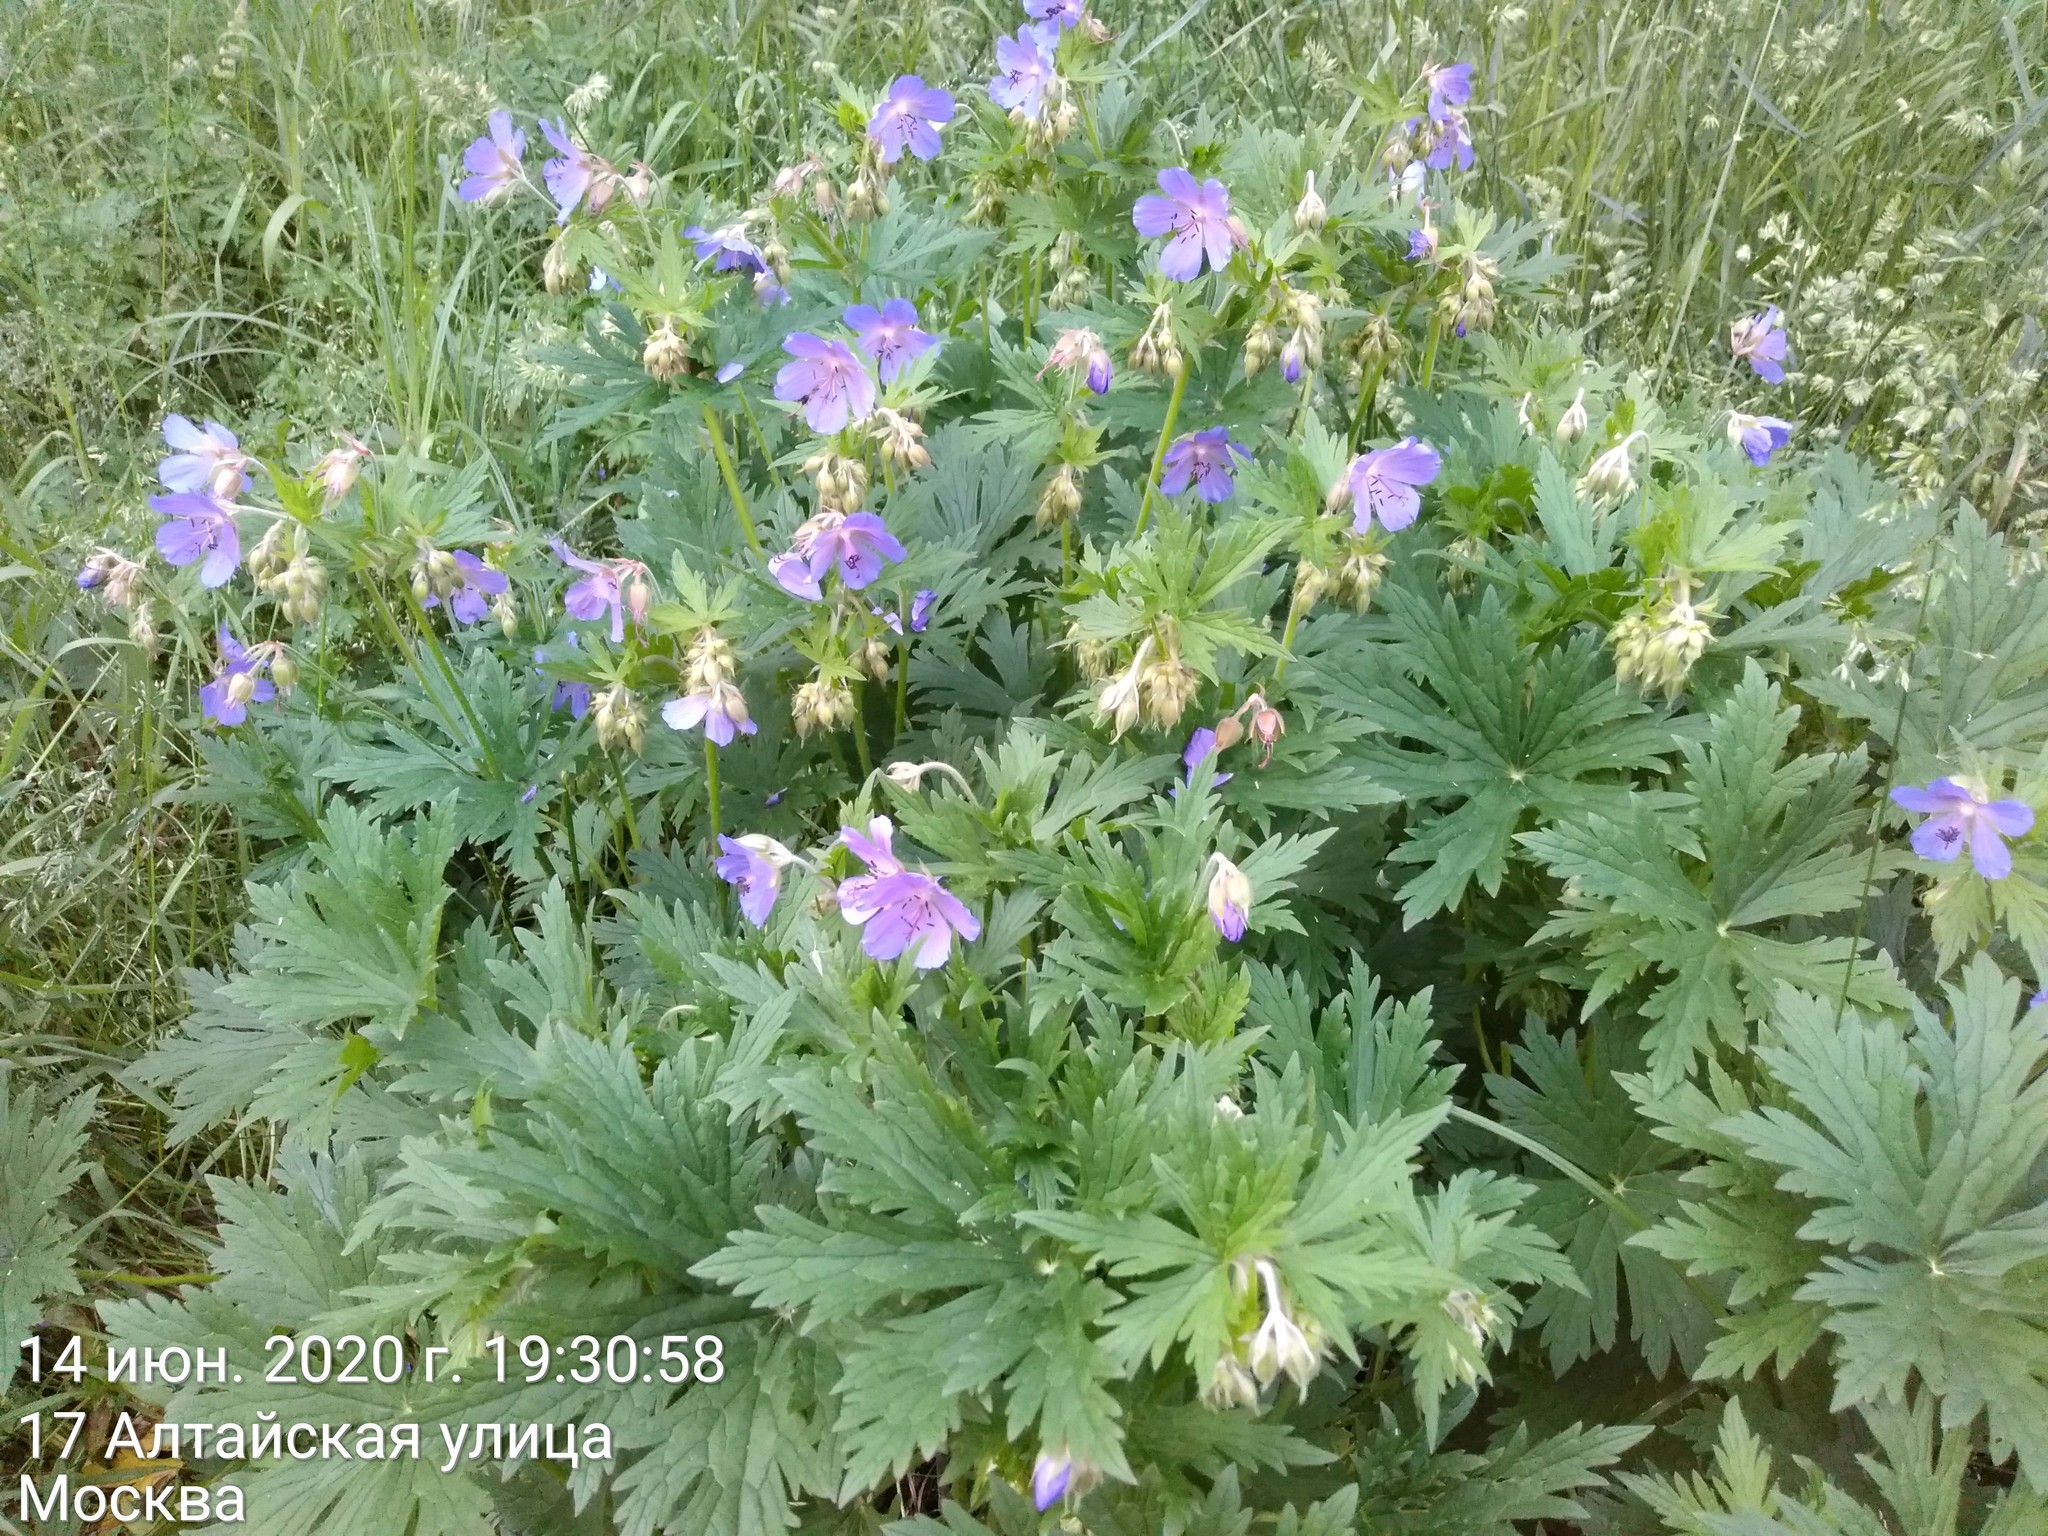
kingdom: Plantae
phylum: Tracheophyta
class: Magnoliopsida
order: Geraniales
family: Geraniaceae
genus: Geranium
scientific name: Geranium pratense
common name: Meadow crane's-bill
